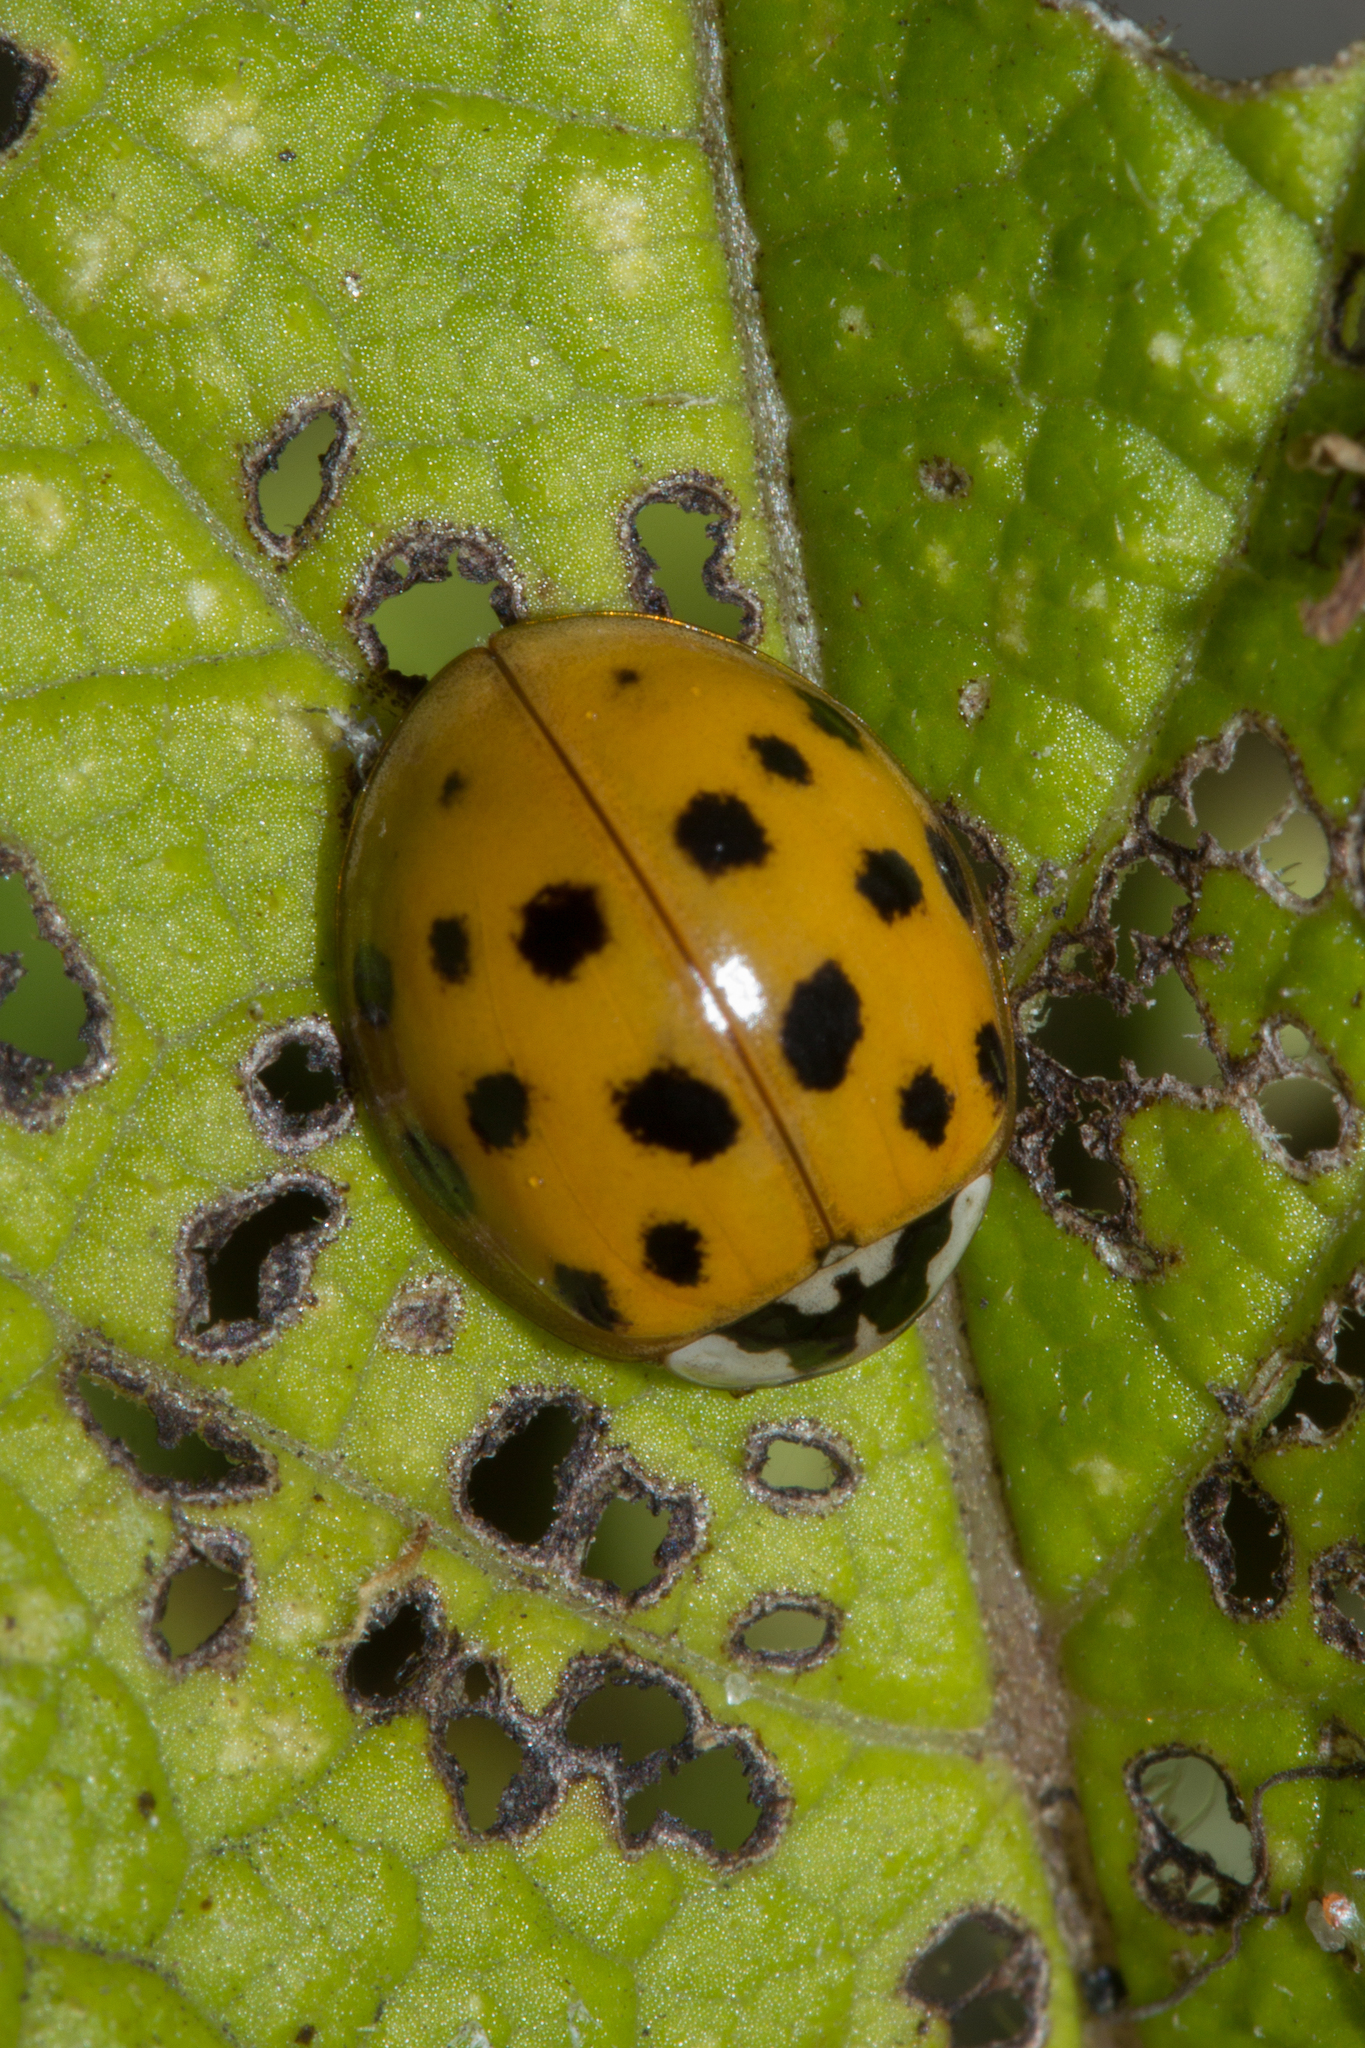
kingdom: Animalia
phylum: Arthropoda
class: Insecta
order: Coleoptera
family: Coccinellidae
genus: Harmonia
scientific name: Harmonia axyridis
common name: Harlequin ladybird
